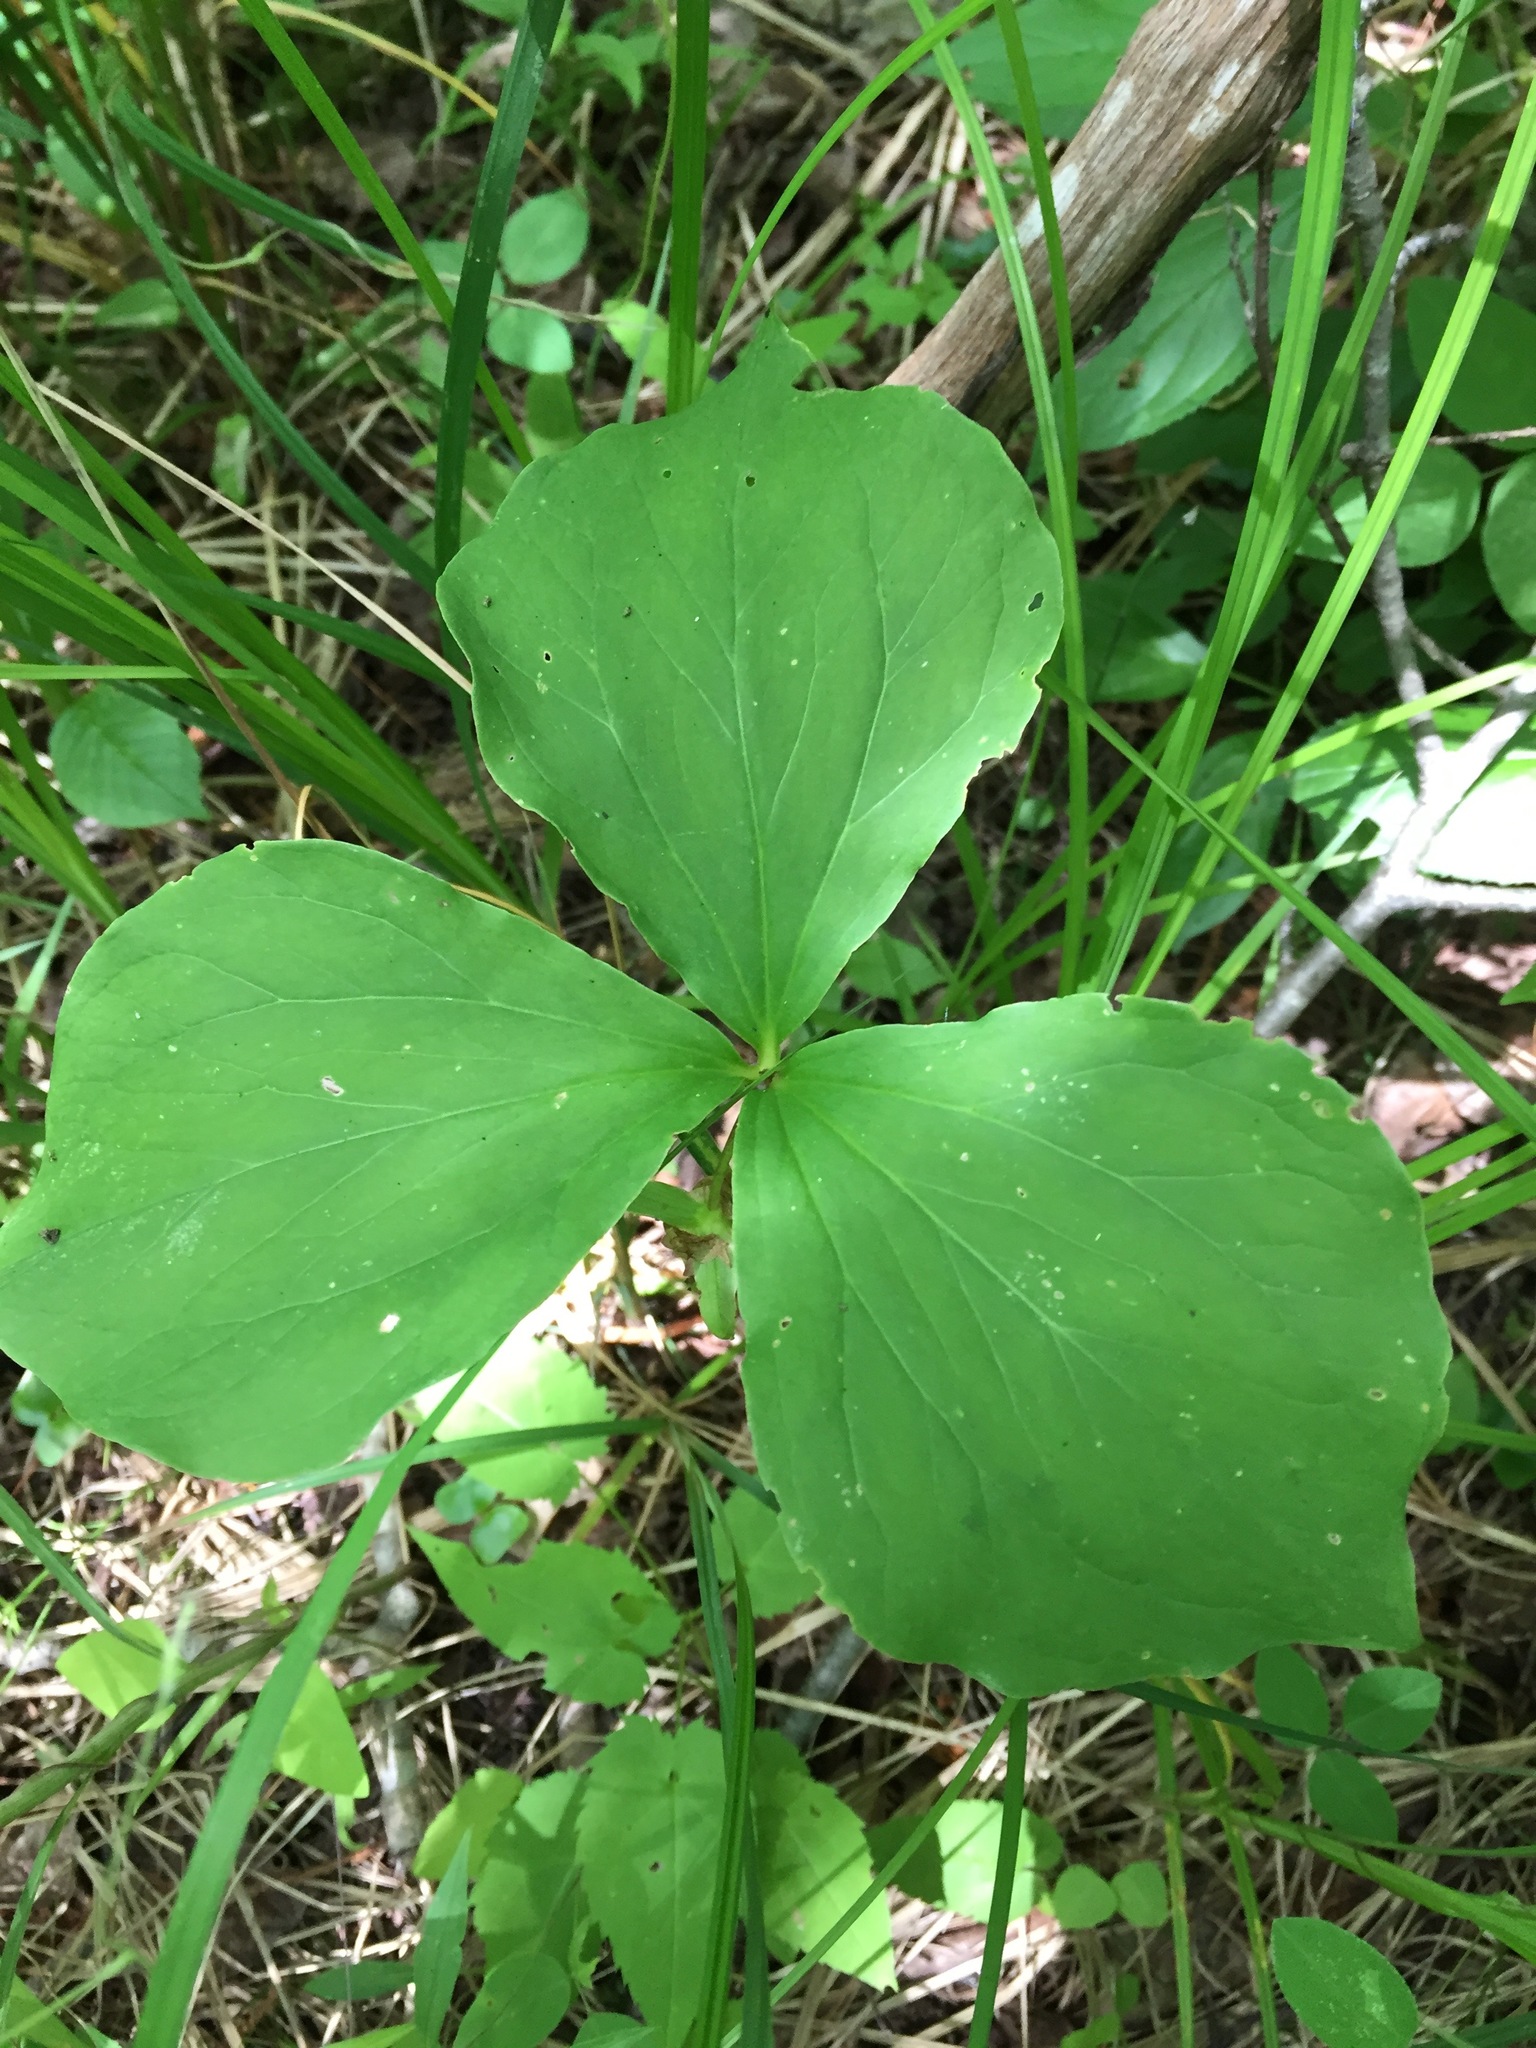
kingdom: Plantae
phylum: Tracheophyta
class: Liliopsida
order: Liliales
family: Melanthiaceae
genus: Trillium
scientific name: Trillium cernuum
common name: Nodding trillium
